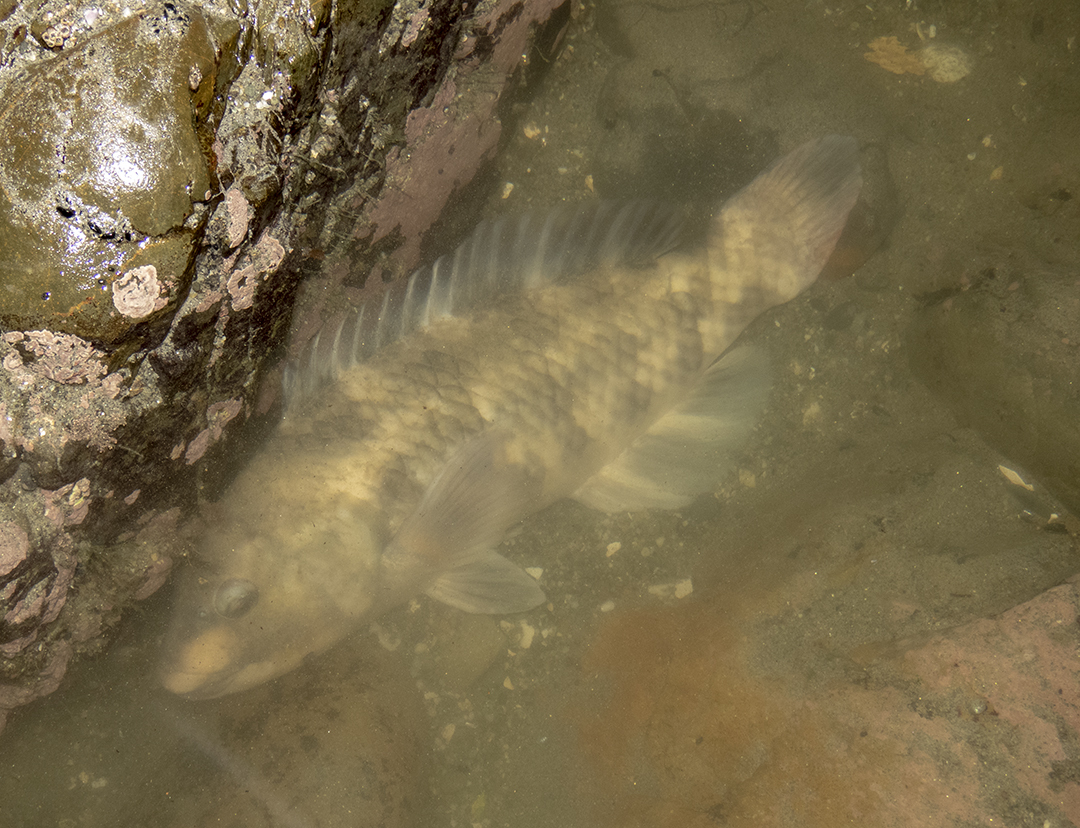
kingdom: Animalia
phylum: Chordata
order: Perciformes
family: Labridae
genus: Notolabrus
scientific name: Notolabrus fucicola
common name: Banded parrotfish
